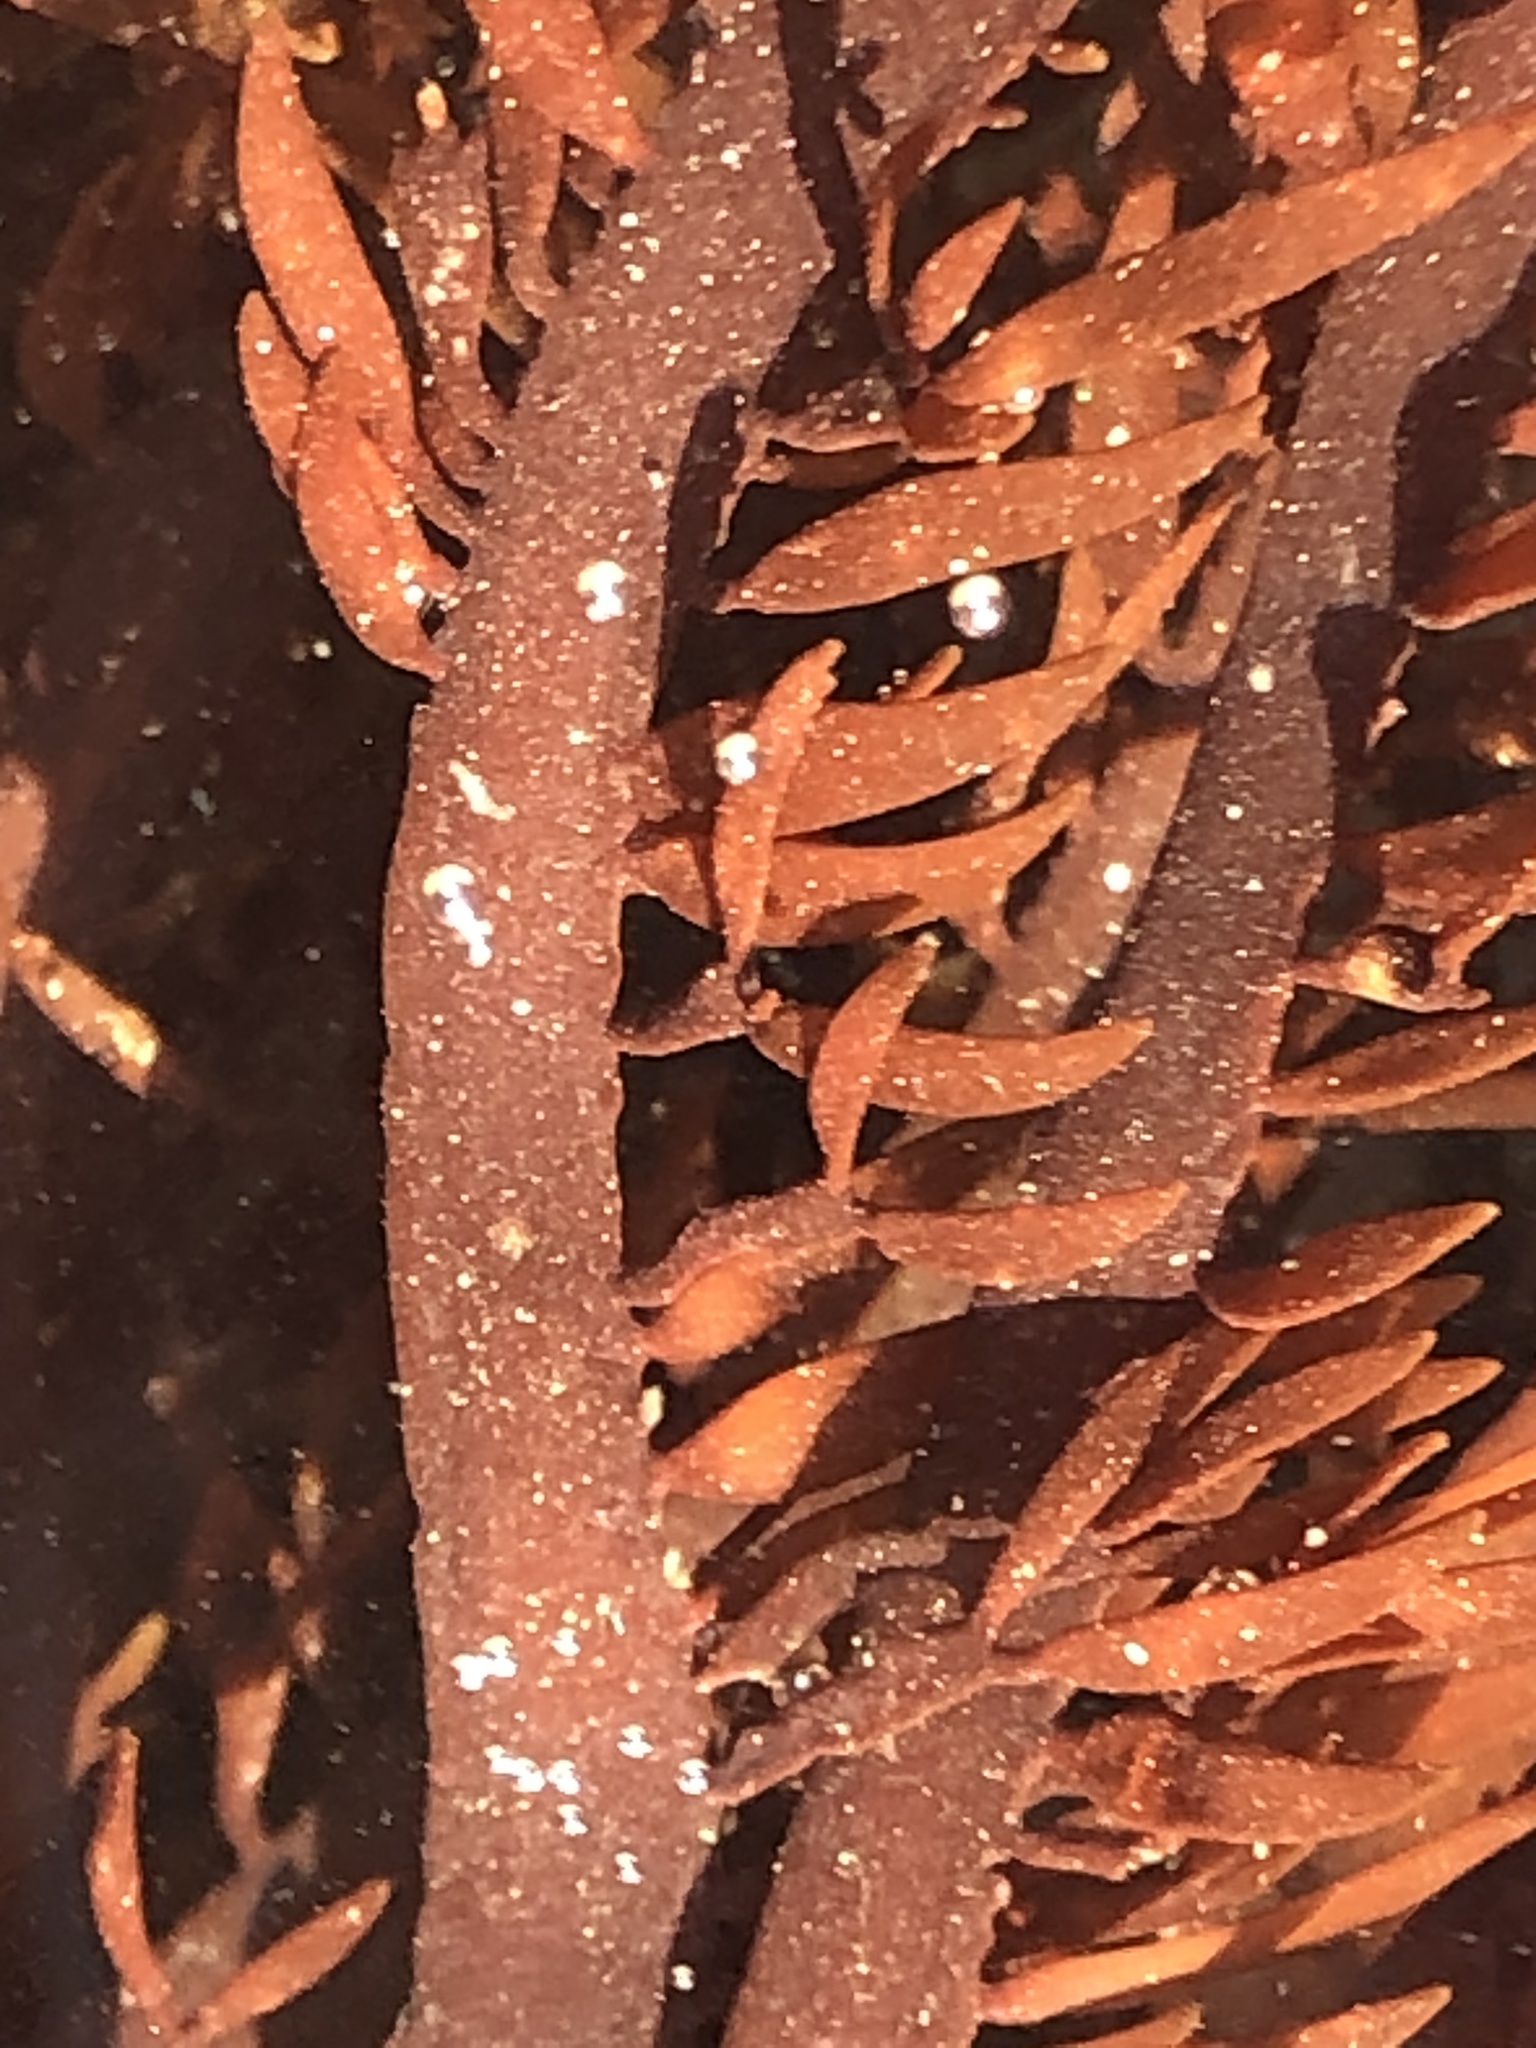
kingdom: Plantae
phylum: Rhodophyta
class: Florideophyceae
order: Halymeniales
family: Halymeniaceae
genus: Grateloupia
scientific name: Grateloupia Prionitis lanceolata
